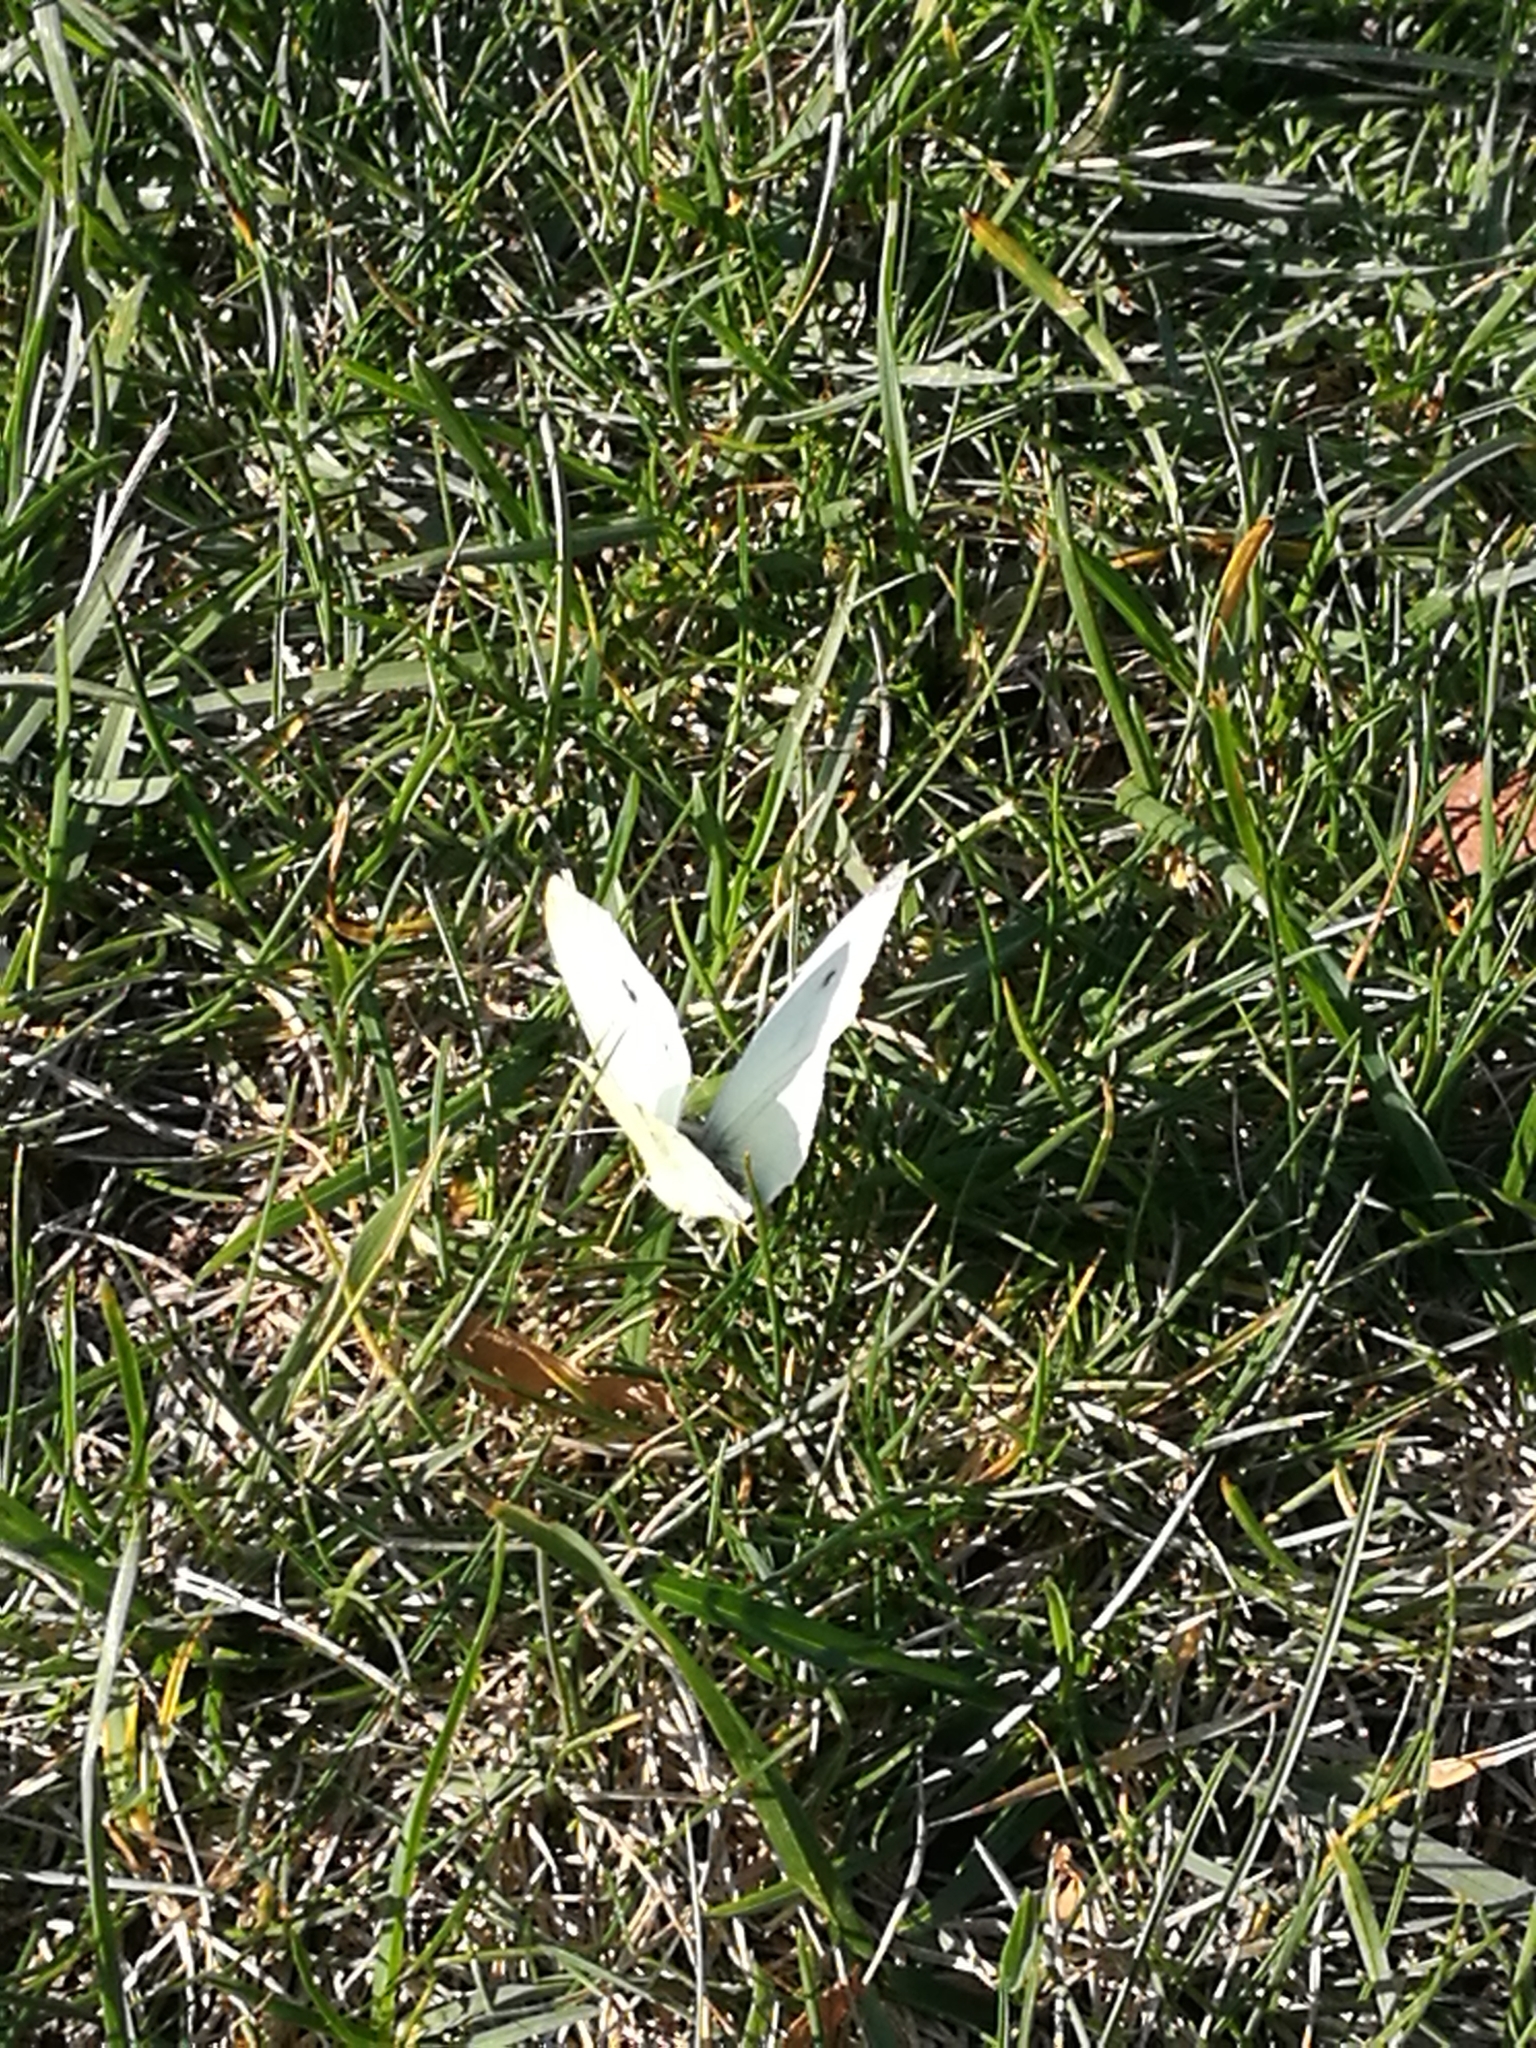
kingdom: Animalia
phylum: Arthropoda
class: Insecta
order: Lepidoptera
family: Pieridae
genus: Pieris
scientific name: Pieris rapae
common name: Small white
